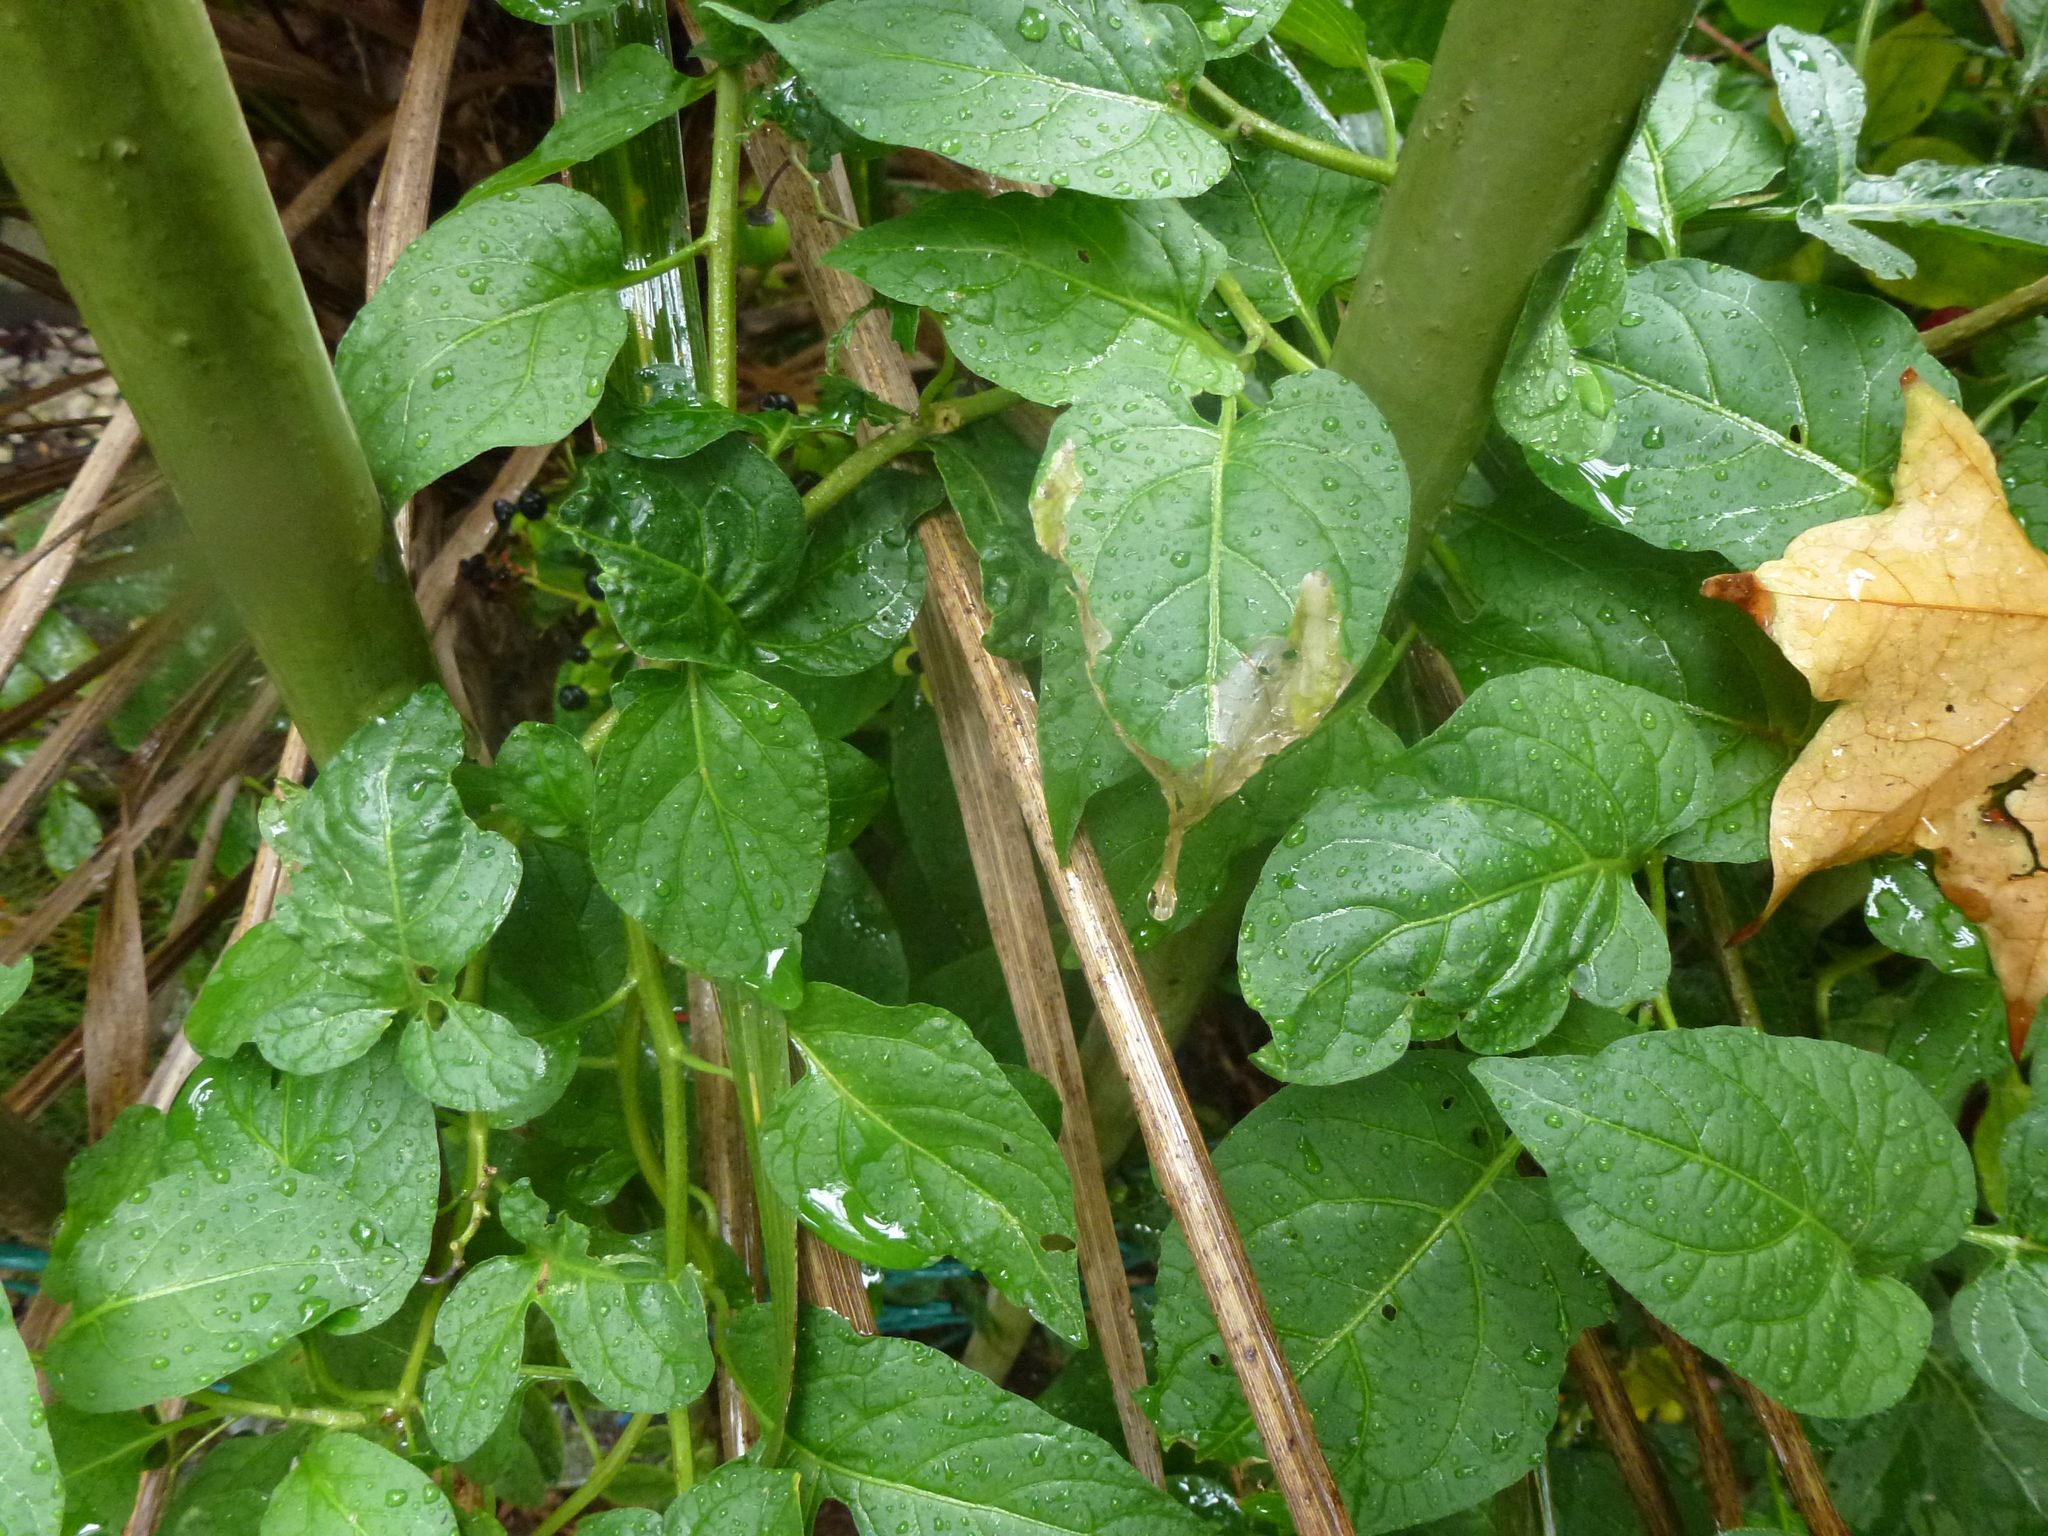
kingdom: Animalia
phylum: Arthropoda
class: Insecta
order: Lepidoptera
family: Glyphipterigidae
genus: Acrolepia
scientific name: Acrolepia pygmaeana
